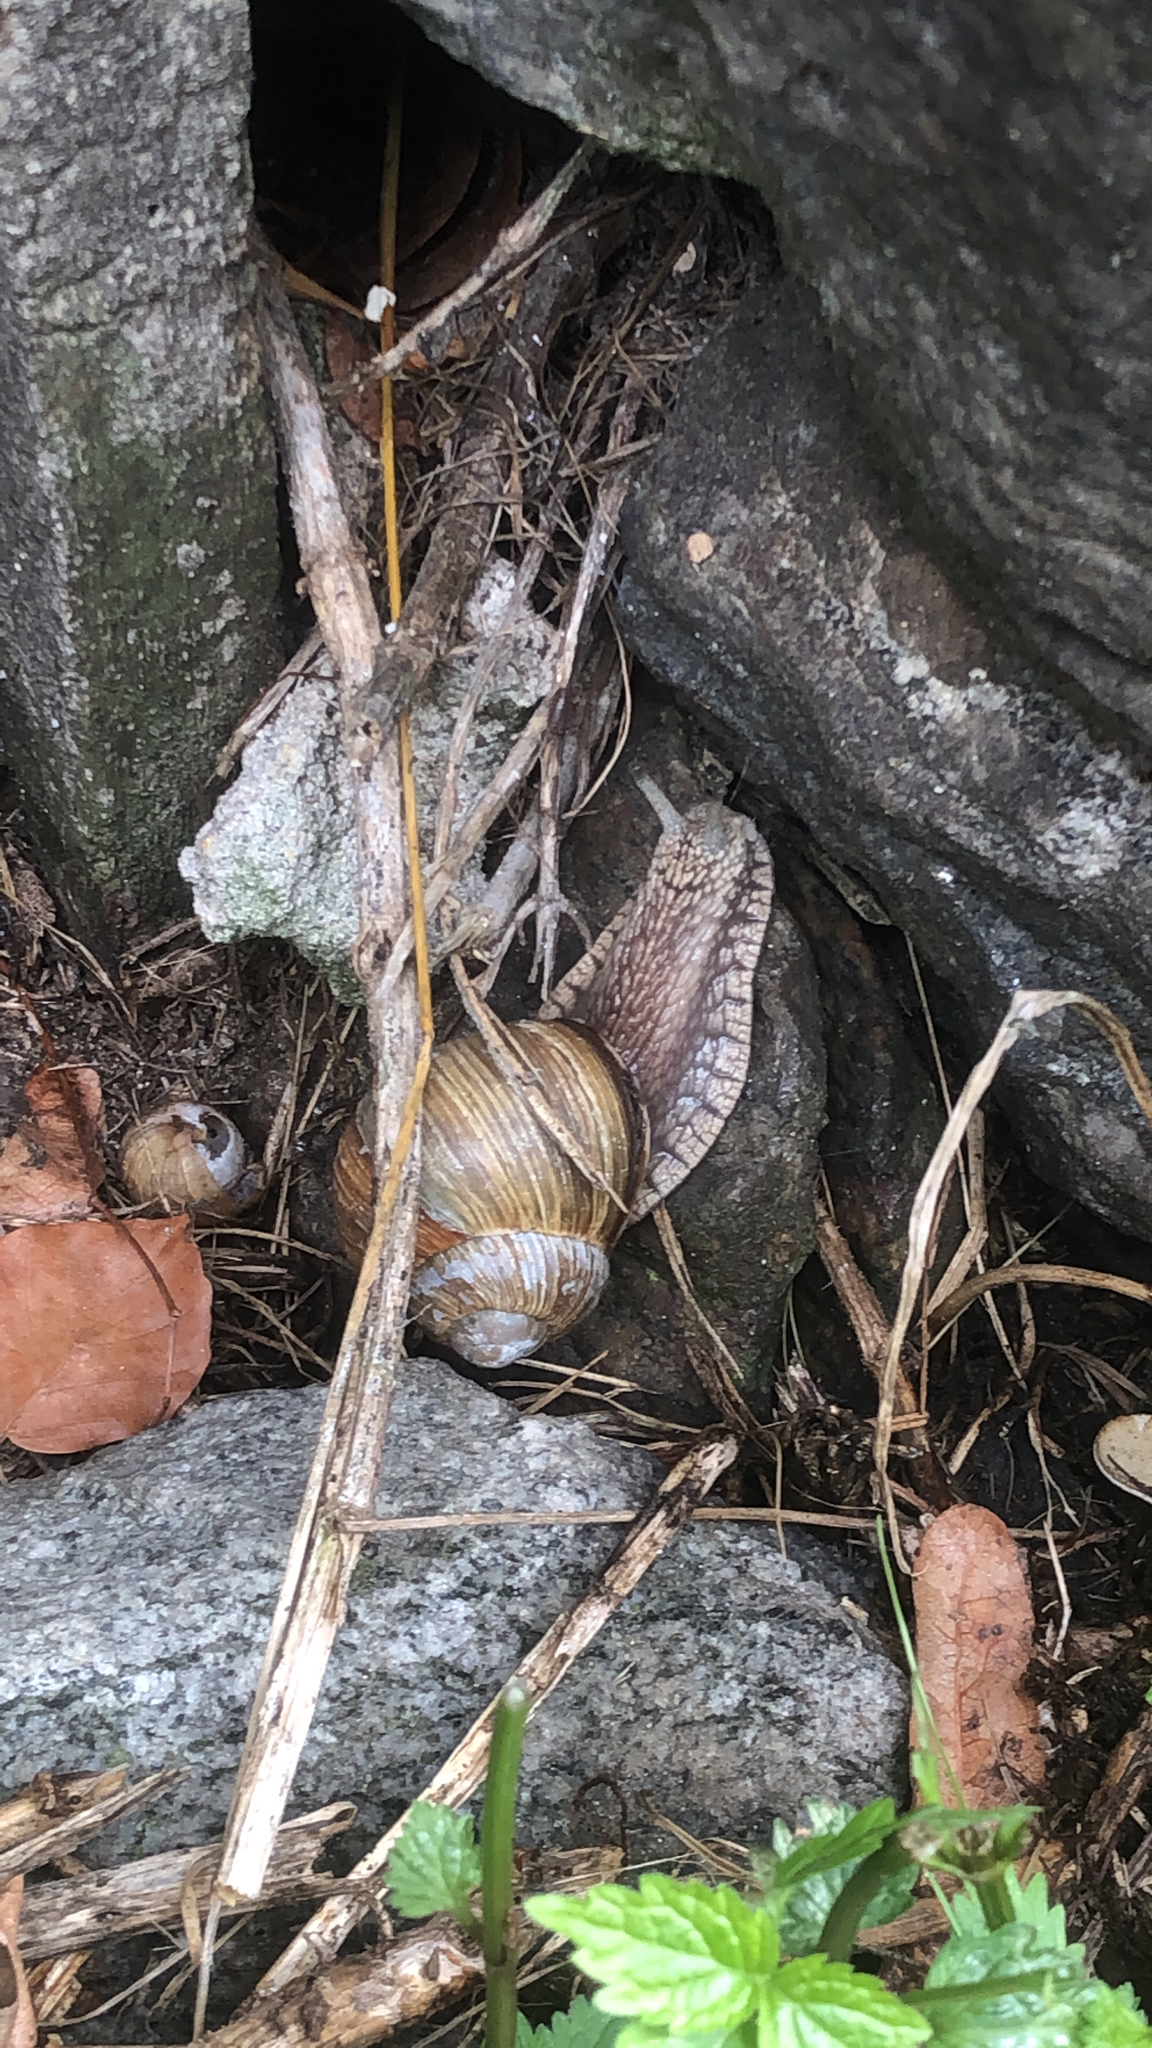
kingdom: Animalia
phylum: Mollusca
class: Gastropoda
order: Stylommatophora
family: Helicidae
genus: Helix
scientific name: Helix pomatia
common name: Roman snail
